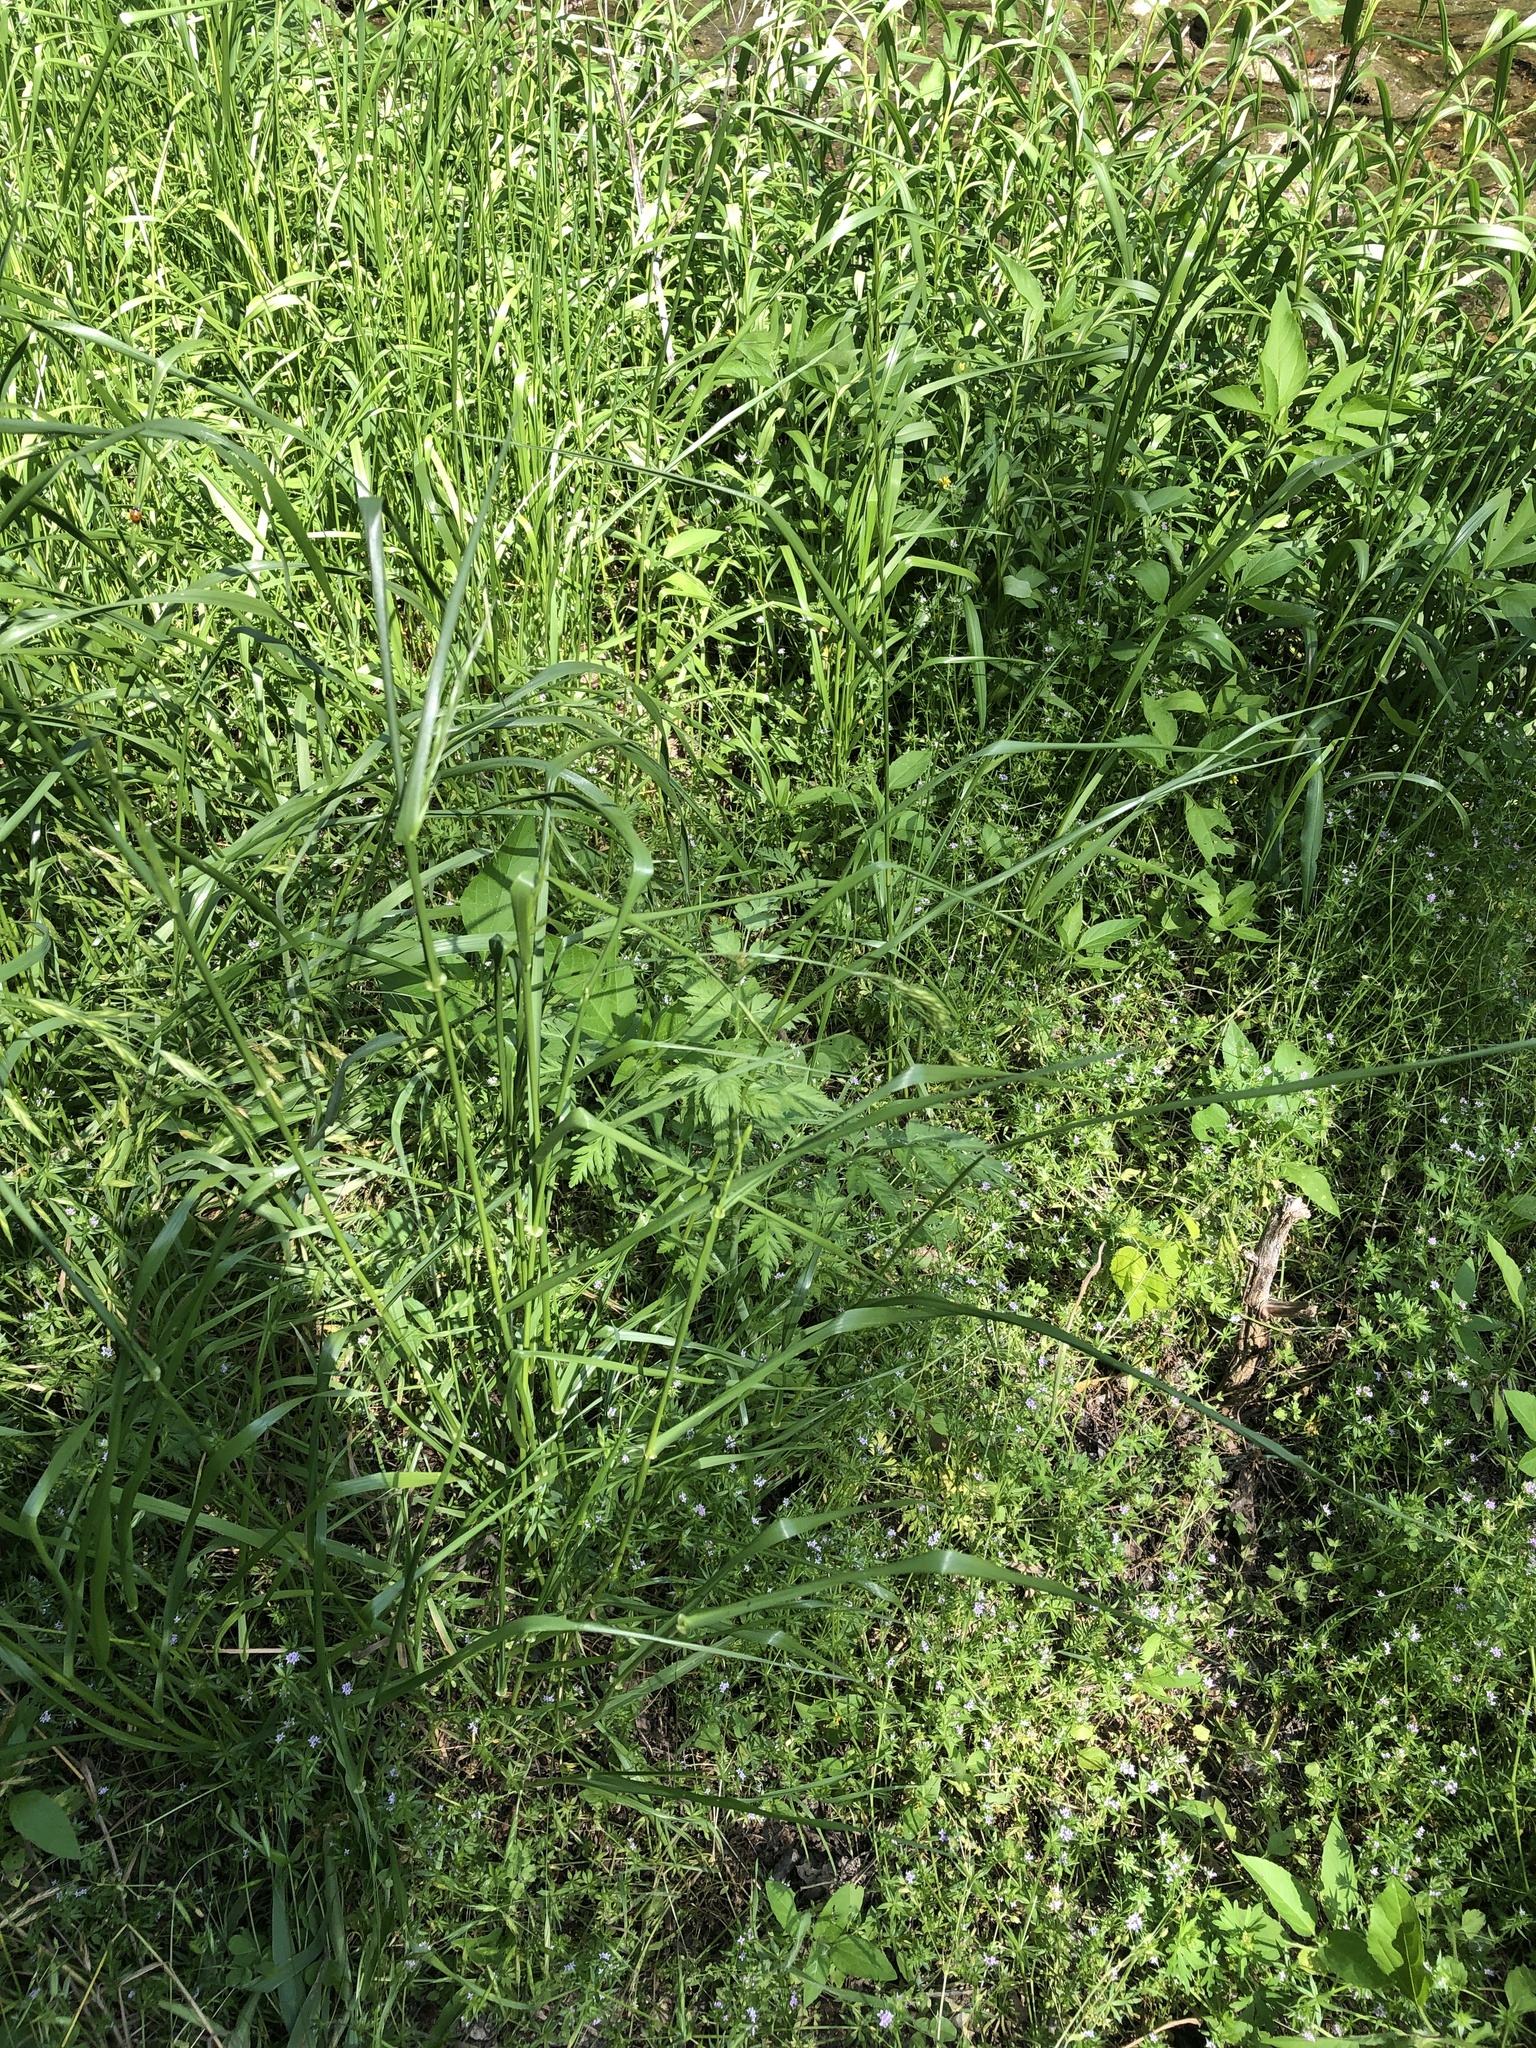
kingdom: Plantae
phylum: Tracheophyta
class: Liliopsida
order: Poales
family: Poaceae
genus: Bromus
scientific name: Bromus catharticus
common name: Rescuegrass
